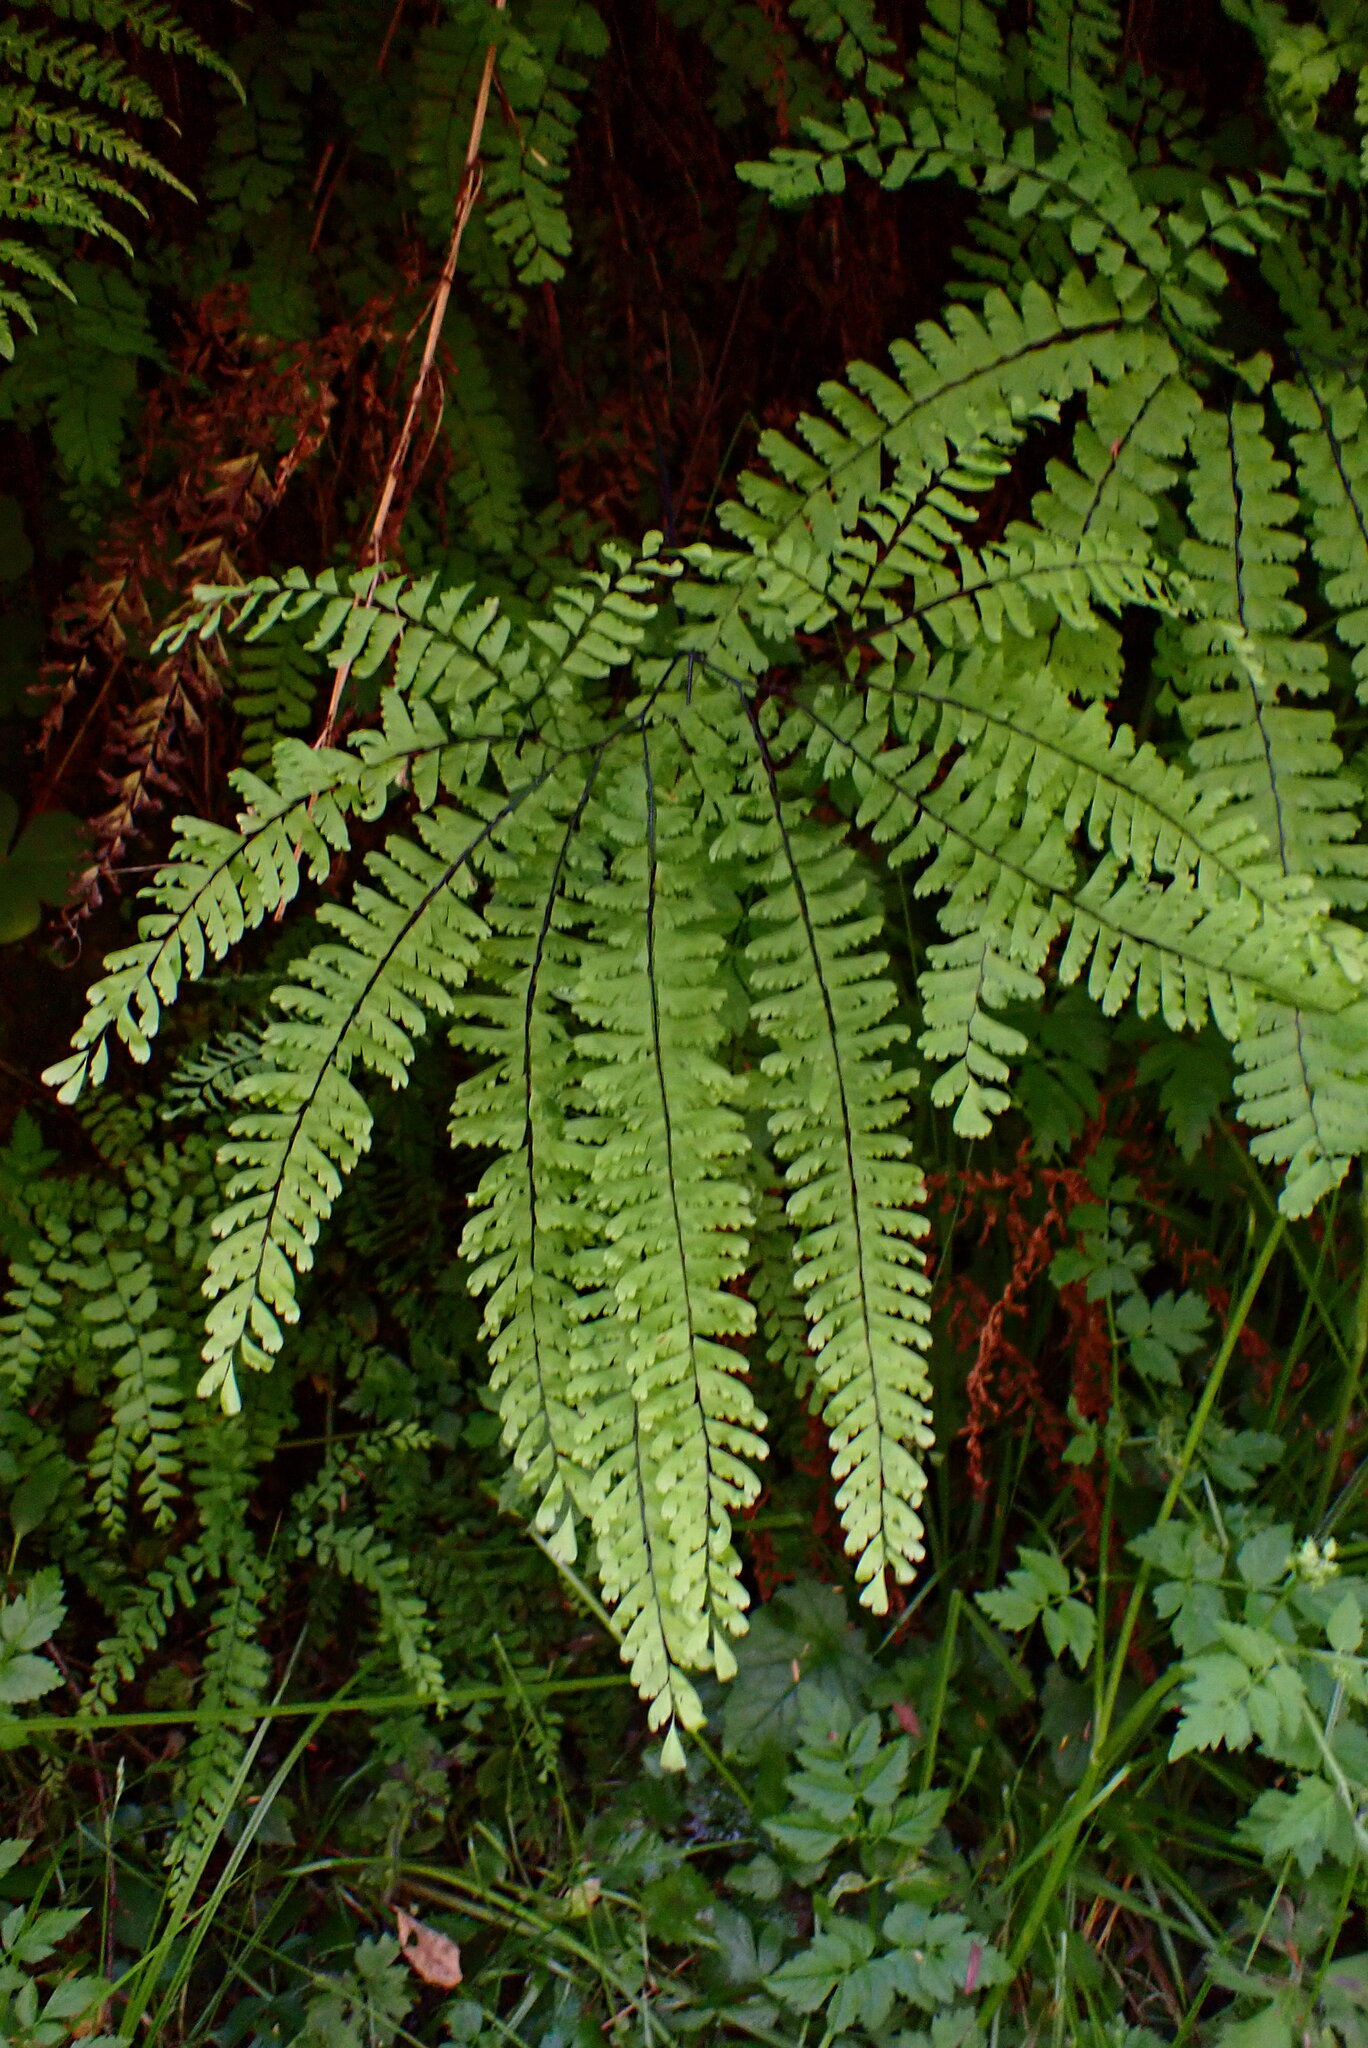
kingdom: Plantae
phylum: Tracheophyta
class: Polypodiopsida
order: Polypodiales
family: Pteridaceae
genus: Adiantum
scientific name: Adiantum aleuticum
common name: Aleutian maidenhair fern
